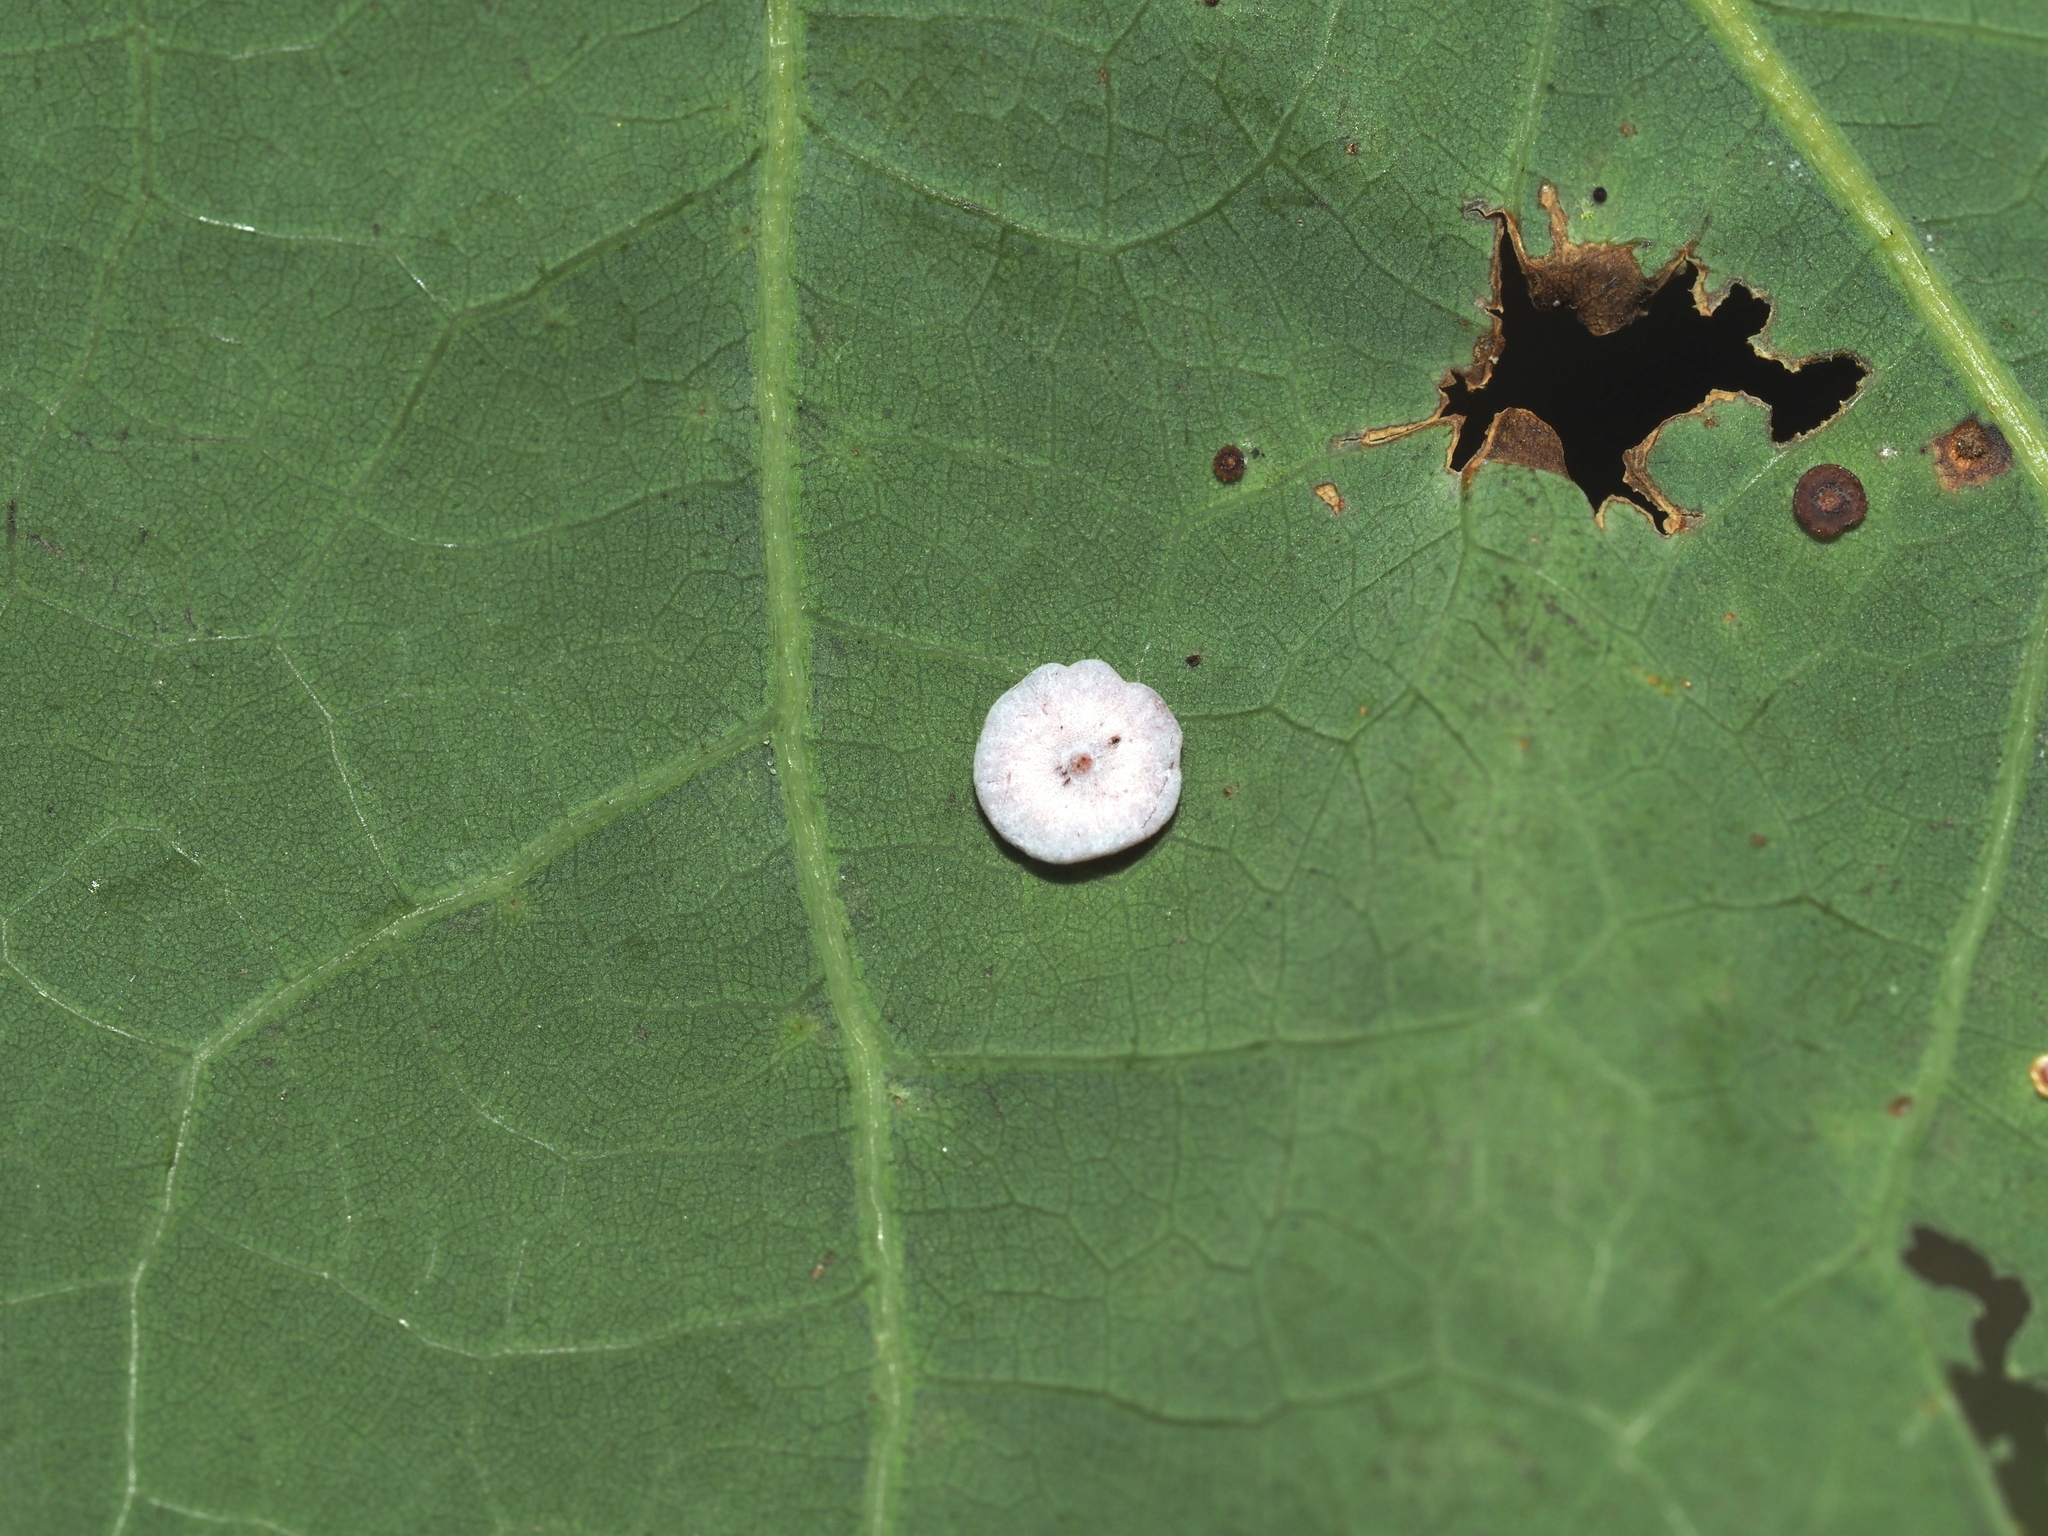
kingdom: Animalia
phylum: Arthropoda
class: Insecta
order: Hymenoptera
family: Cynipidae
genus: Phylloteras
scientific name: Phylloteras poculum
